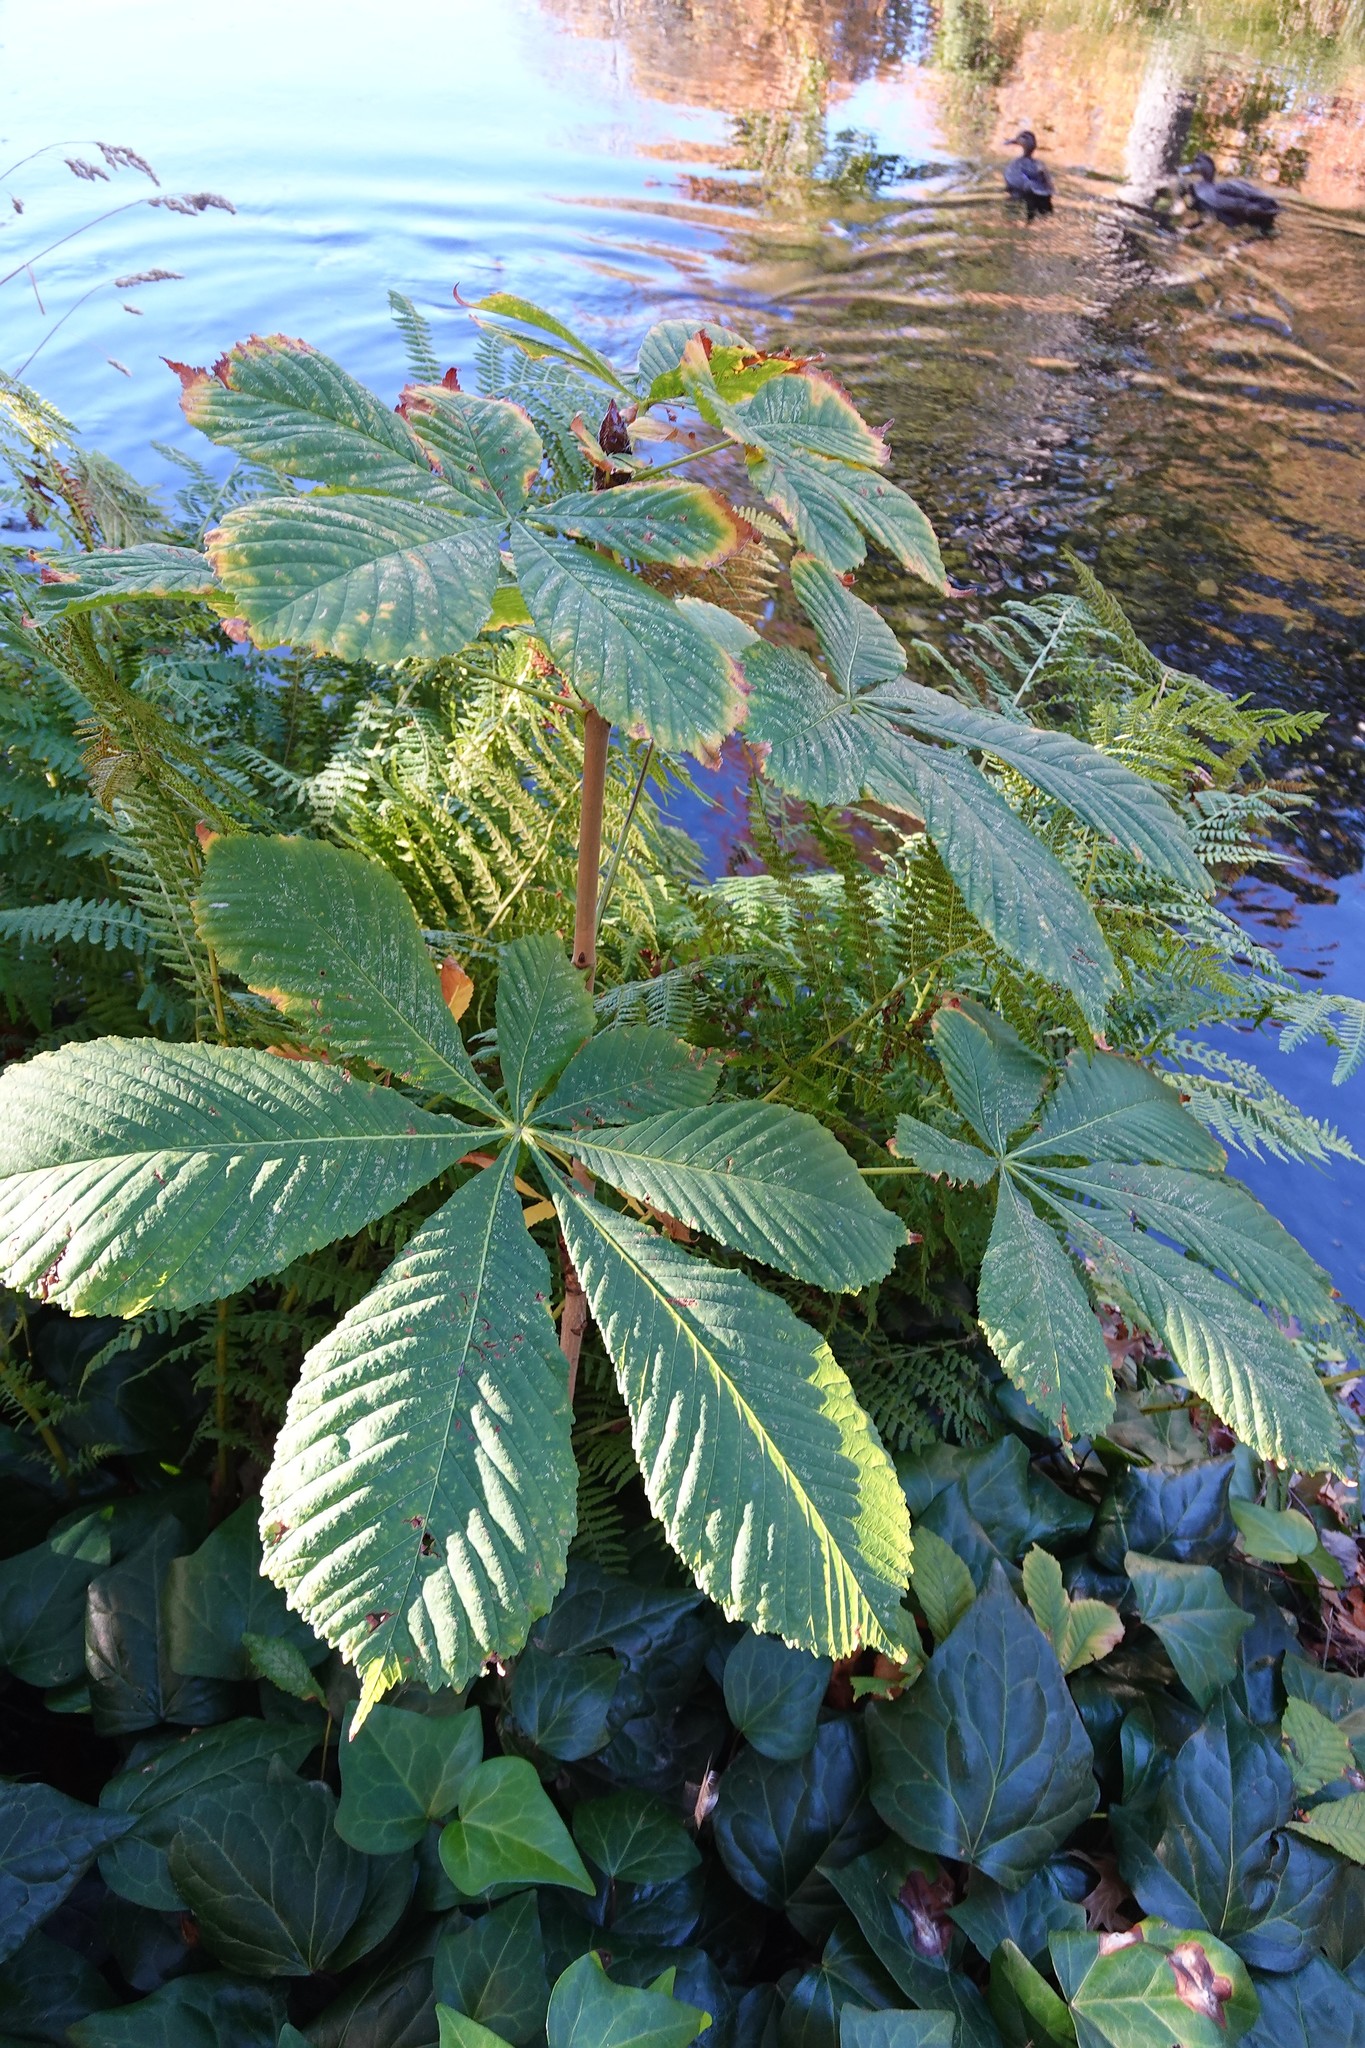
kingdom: Plantae
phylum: Tracheophyta
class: Magnoliopsida
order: Sapindales
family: Sapindaceae
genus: Aesculus
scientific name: Aesculus hippocastanum
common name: Horse-chestnut
